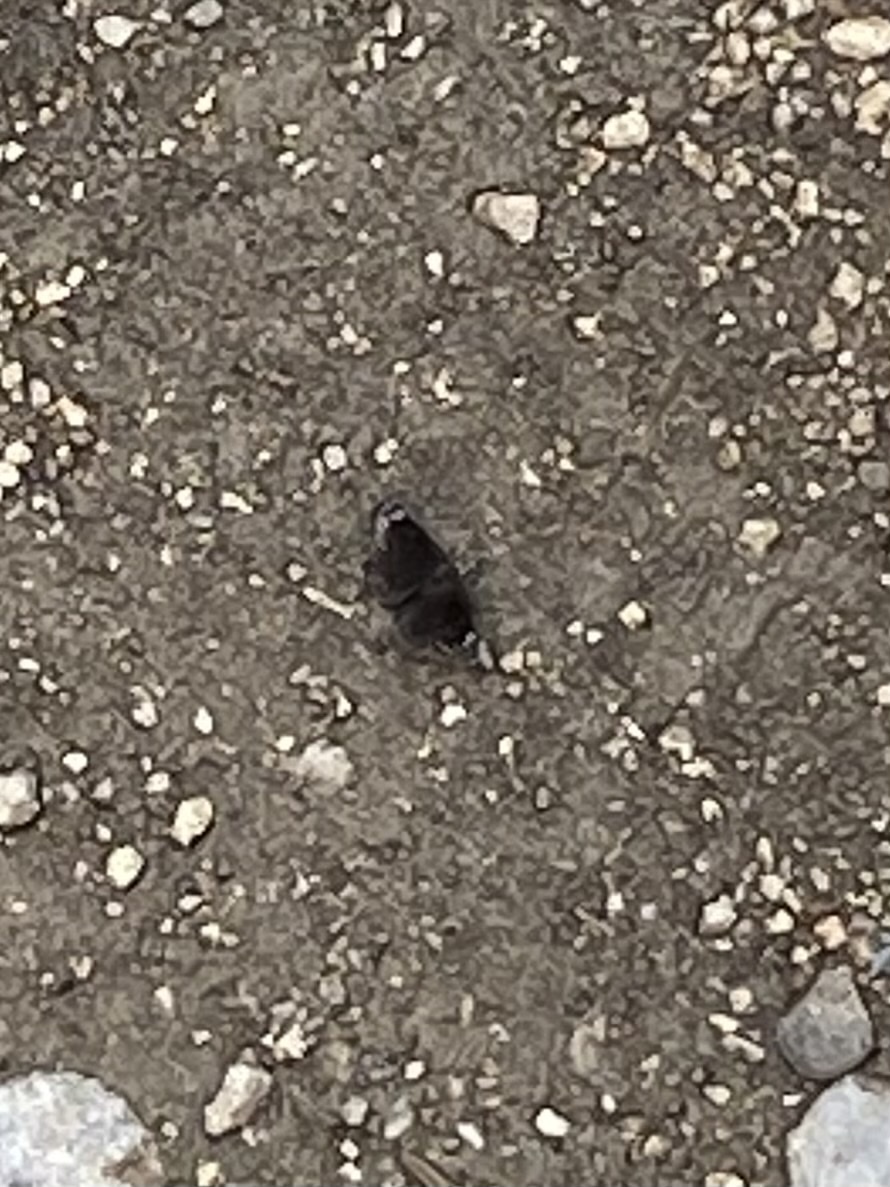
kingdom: Animalia
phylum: Arthropoda
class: Insecta
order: Lepidoptera
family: Hesperiidae
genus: Pholisora
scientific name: Pholisora
